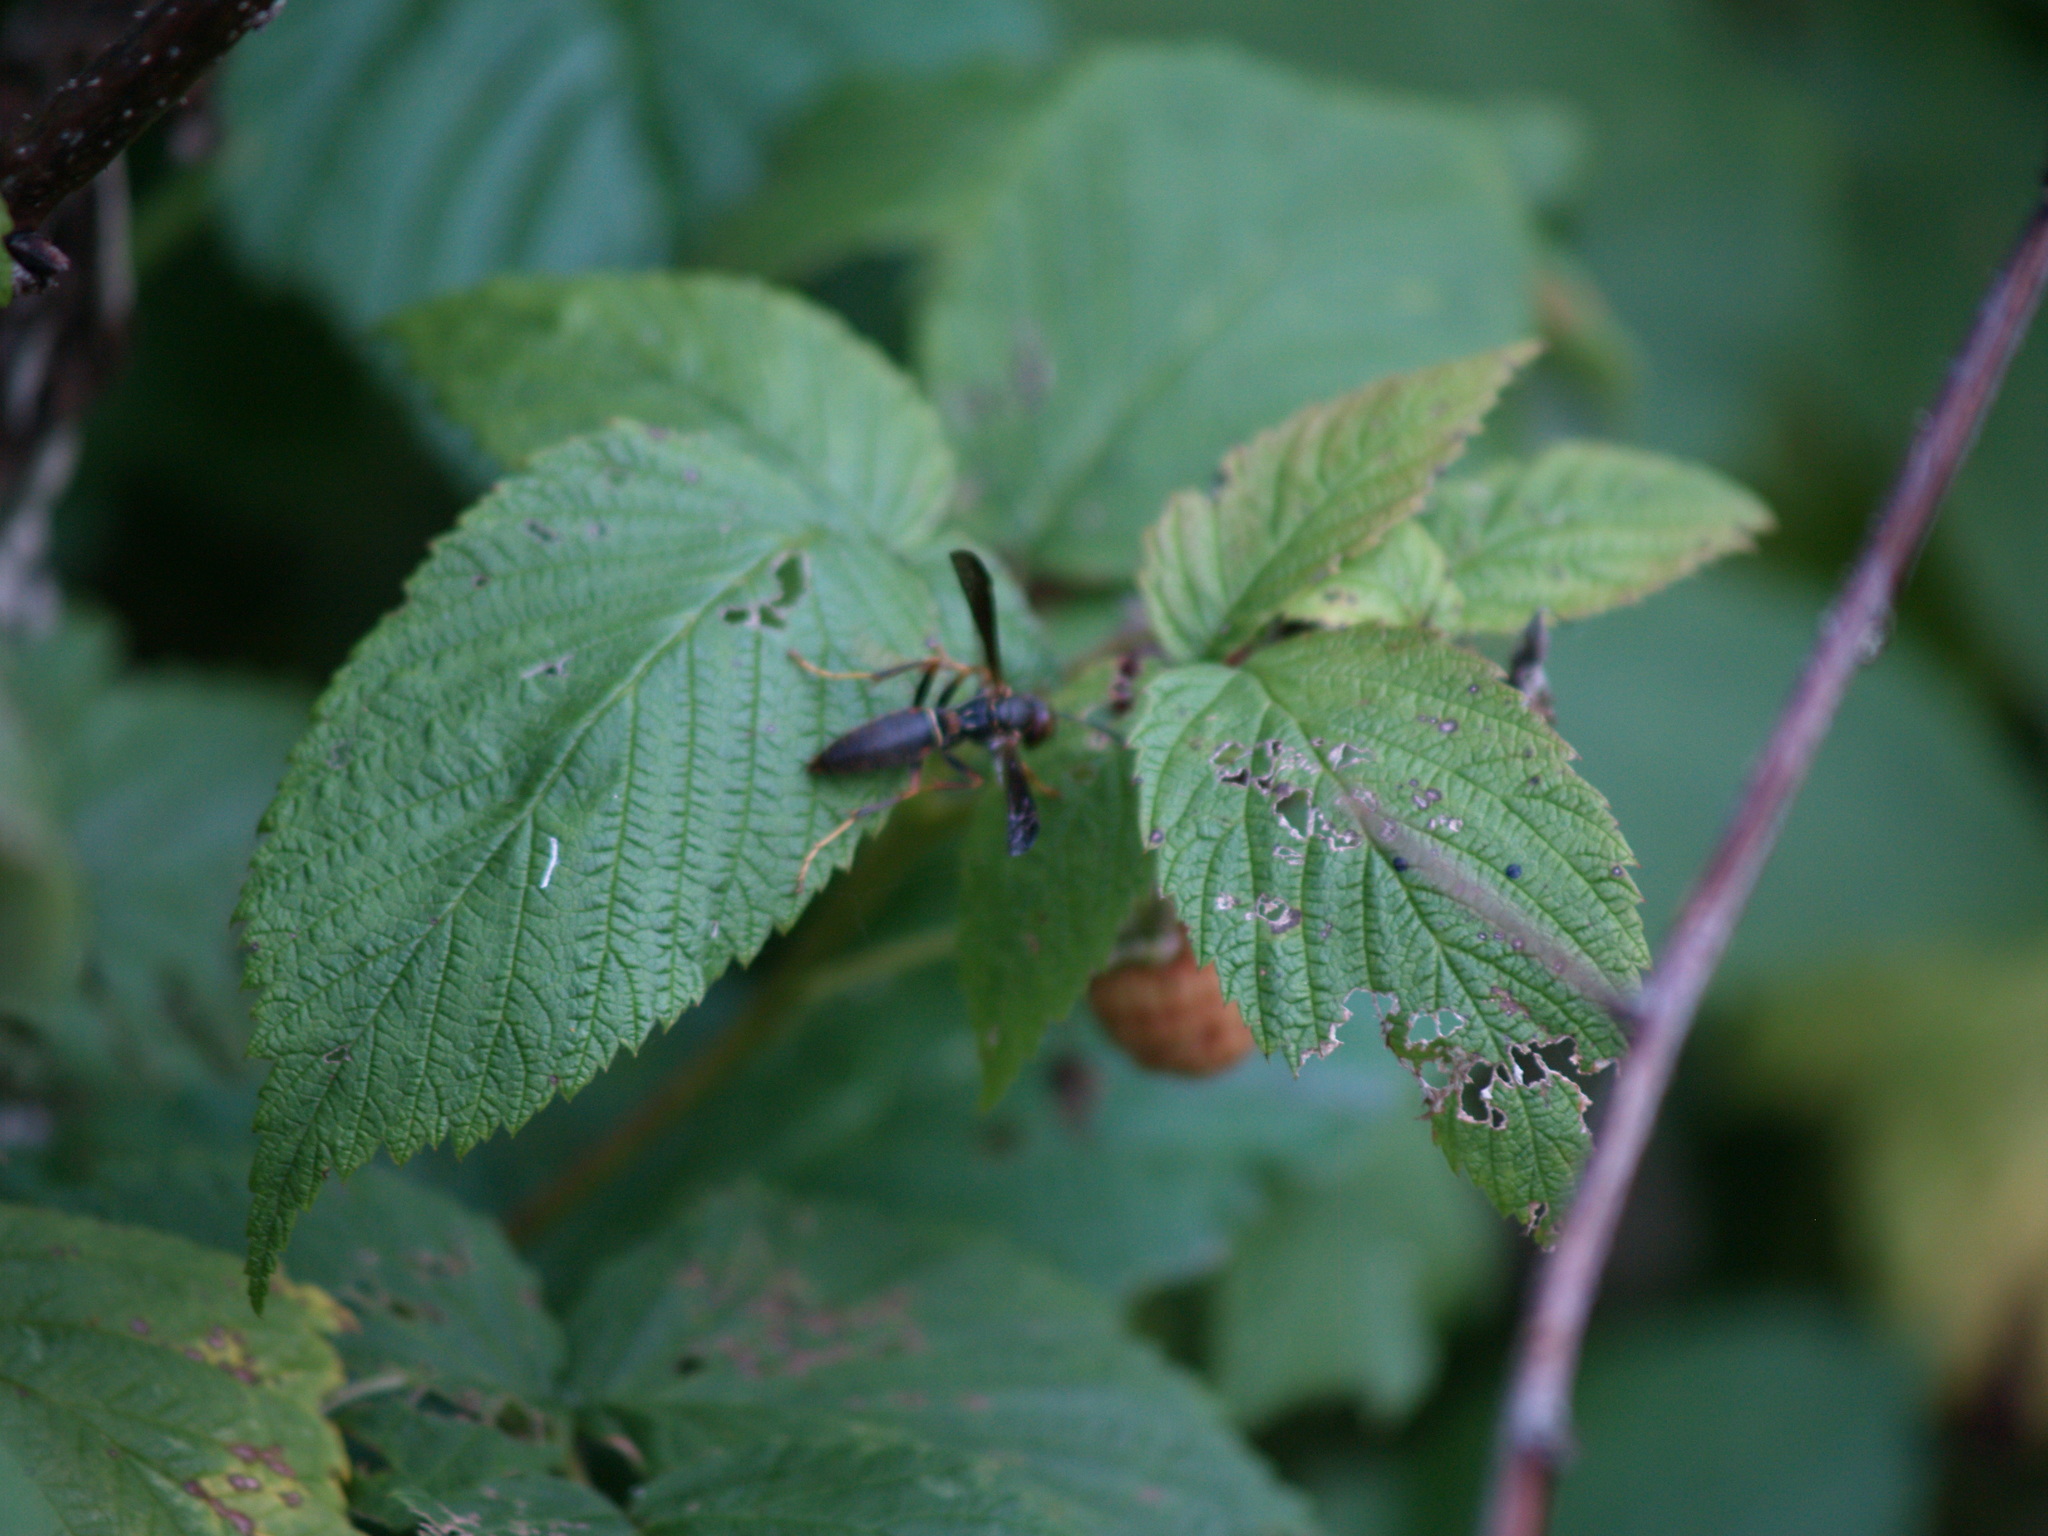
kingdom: Animalia
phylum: Arthropoda
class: Insecta
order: Hymenoptera
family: Eumenidae
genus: Polistes
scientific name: Polistes fuscatus
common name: Dark paper wasp
